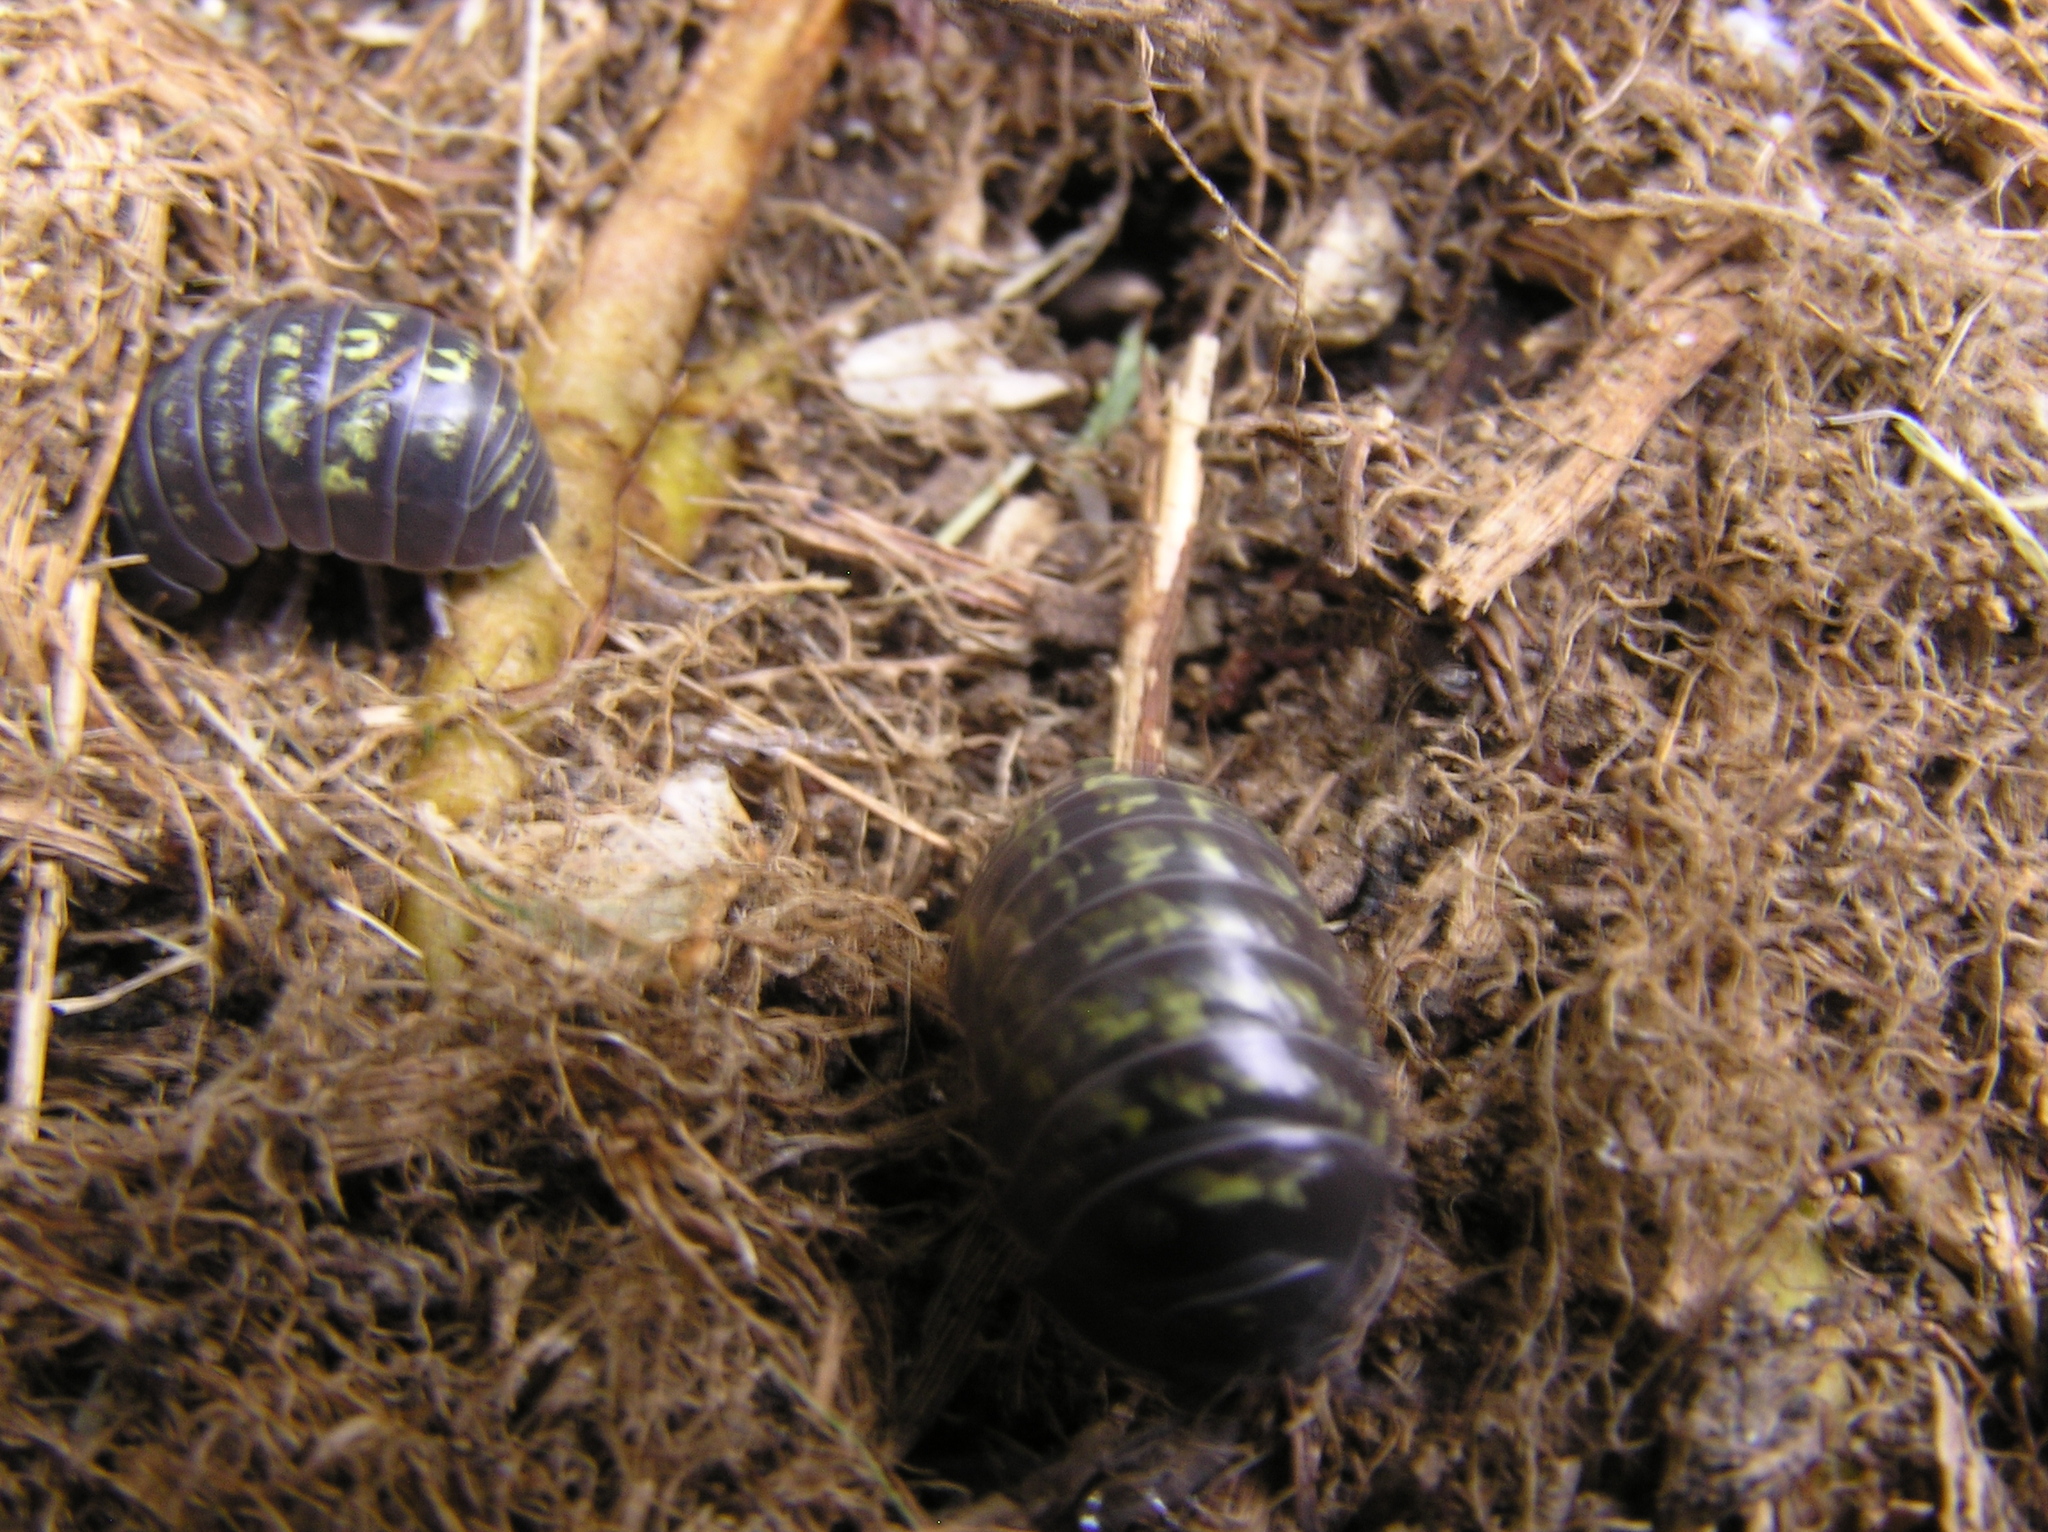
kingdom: Animalia
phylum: Arthropoda
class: Malacostraca
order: Isopoda
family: Armadillidiidae
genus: Armadillidium
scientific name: Armadillidium vulgare
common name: Common pill woodlouse
